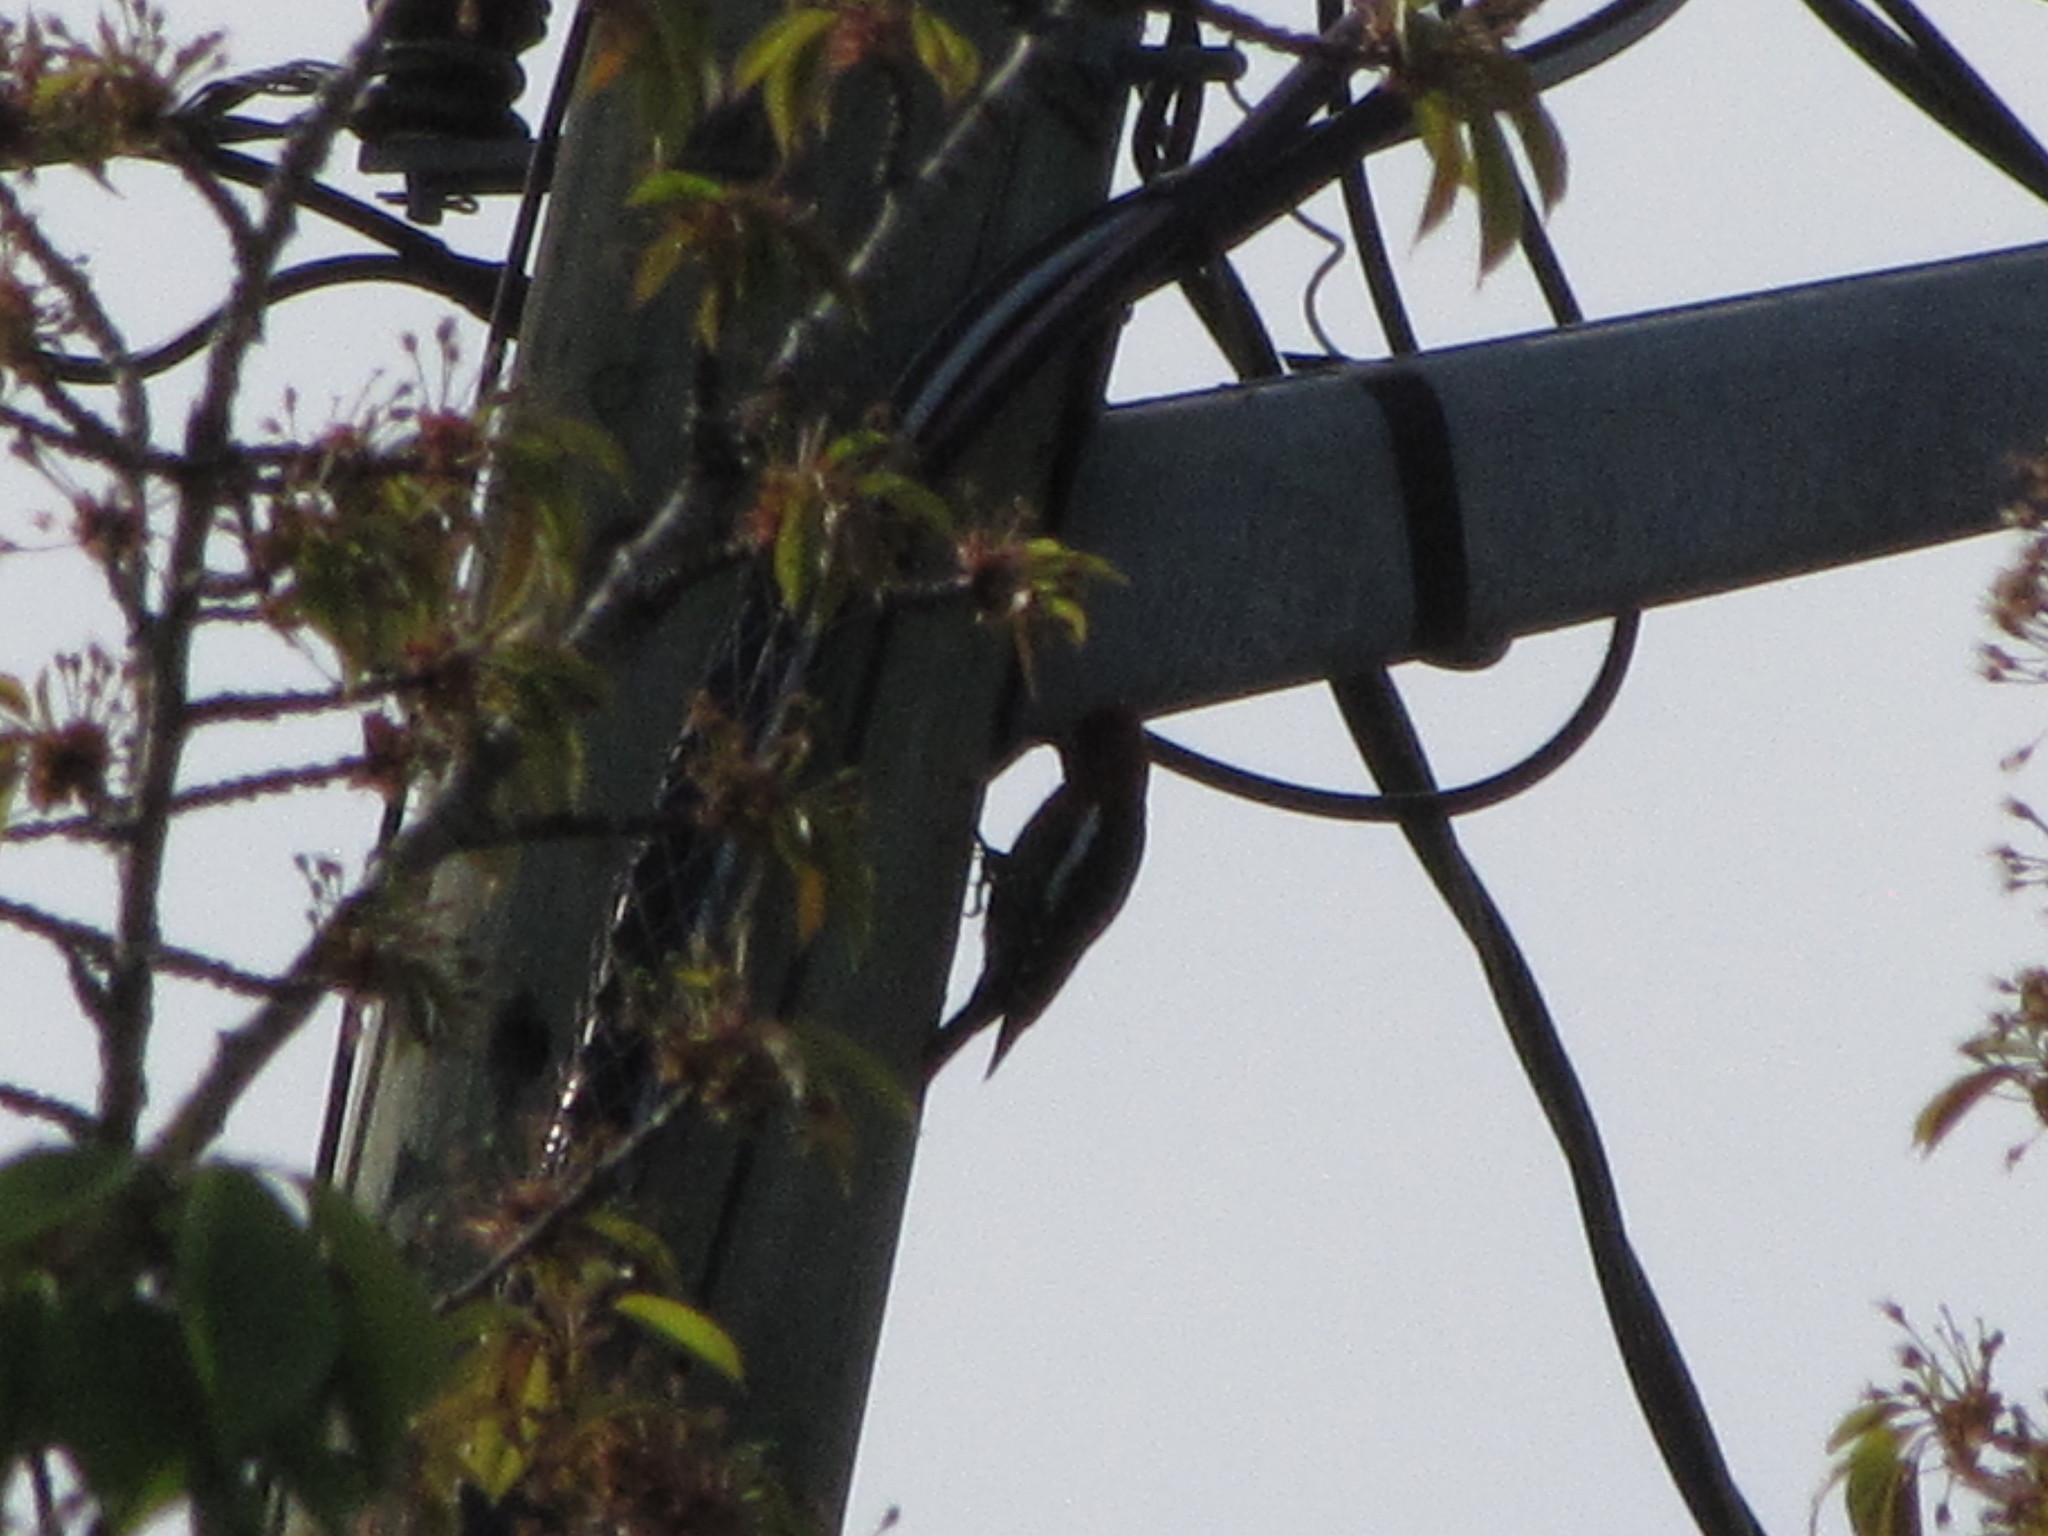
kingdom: Animalia
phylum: Chordata
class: Aves
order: Piciformes
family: Picidae
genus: Sphyrapicus
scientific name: Sphyrapicus ruber
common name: Red-breasted sapsucker
